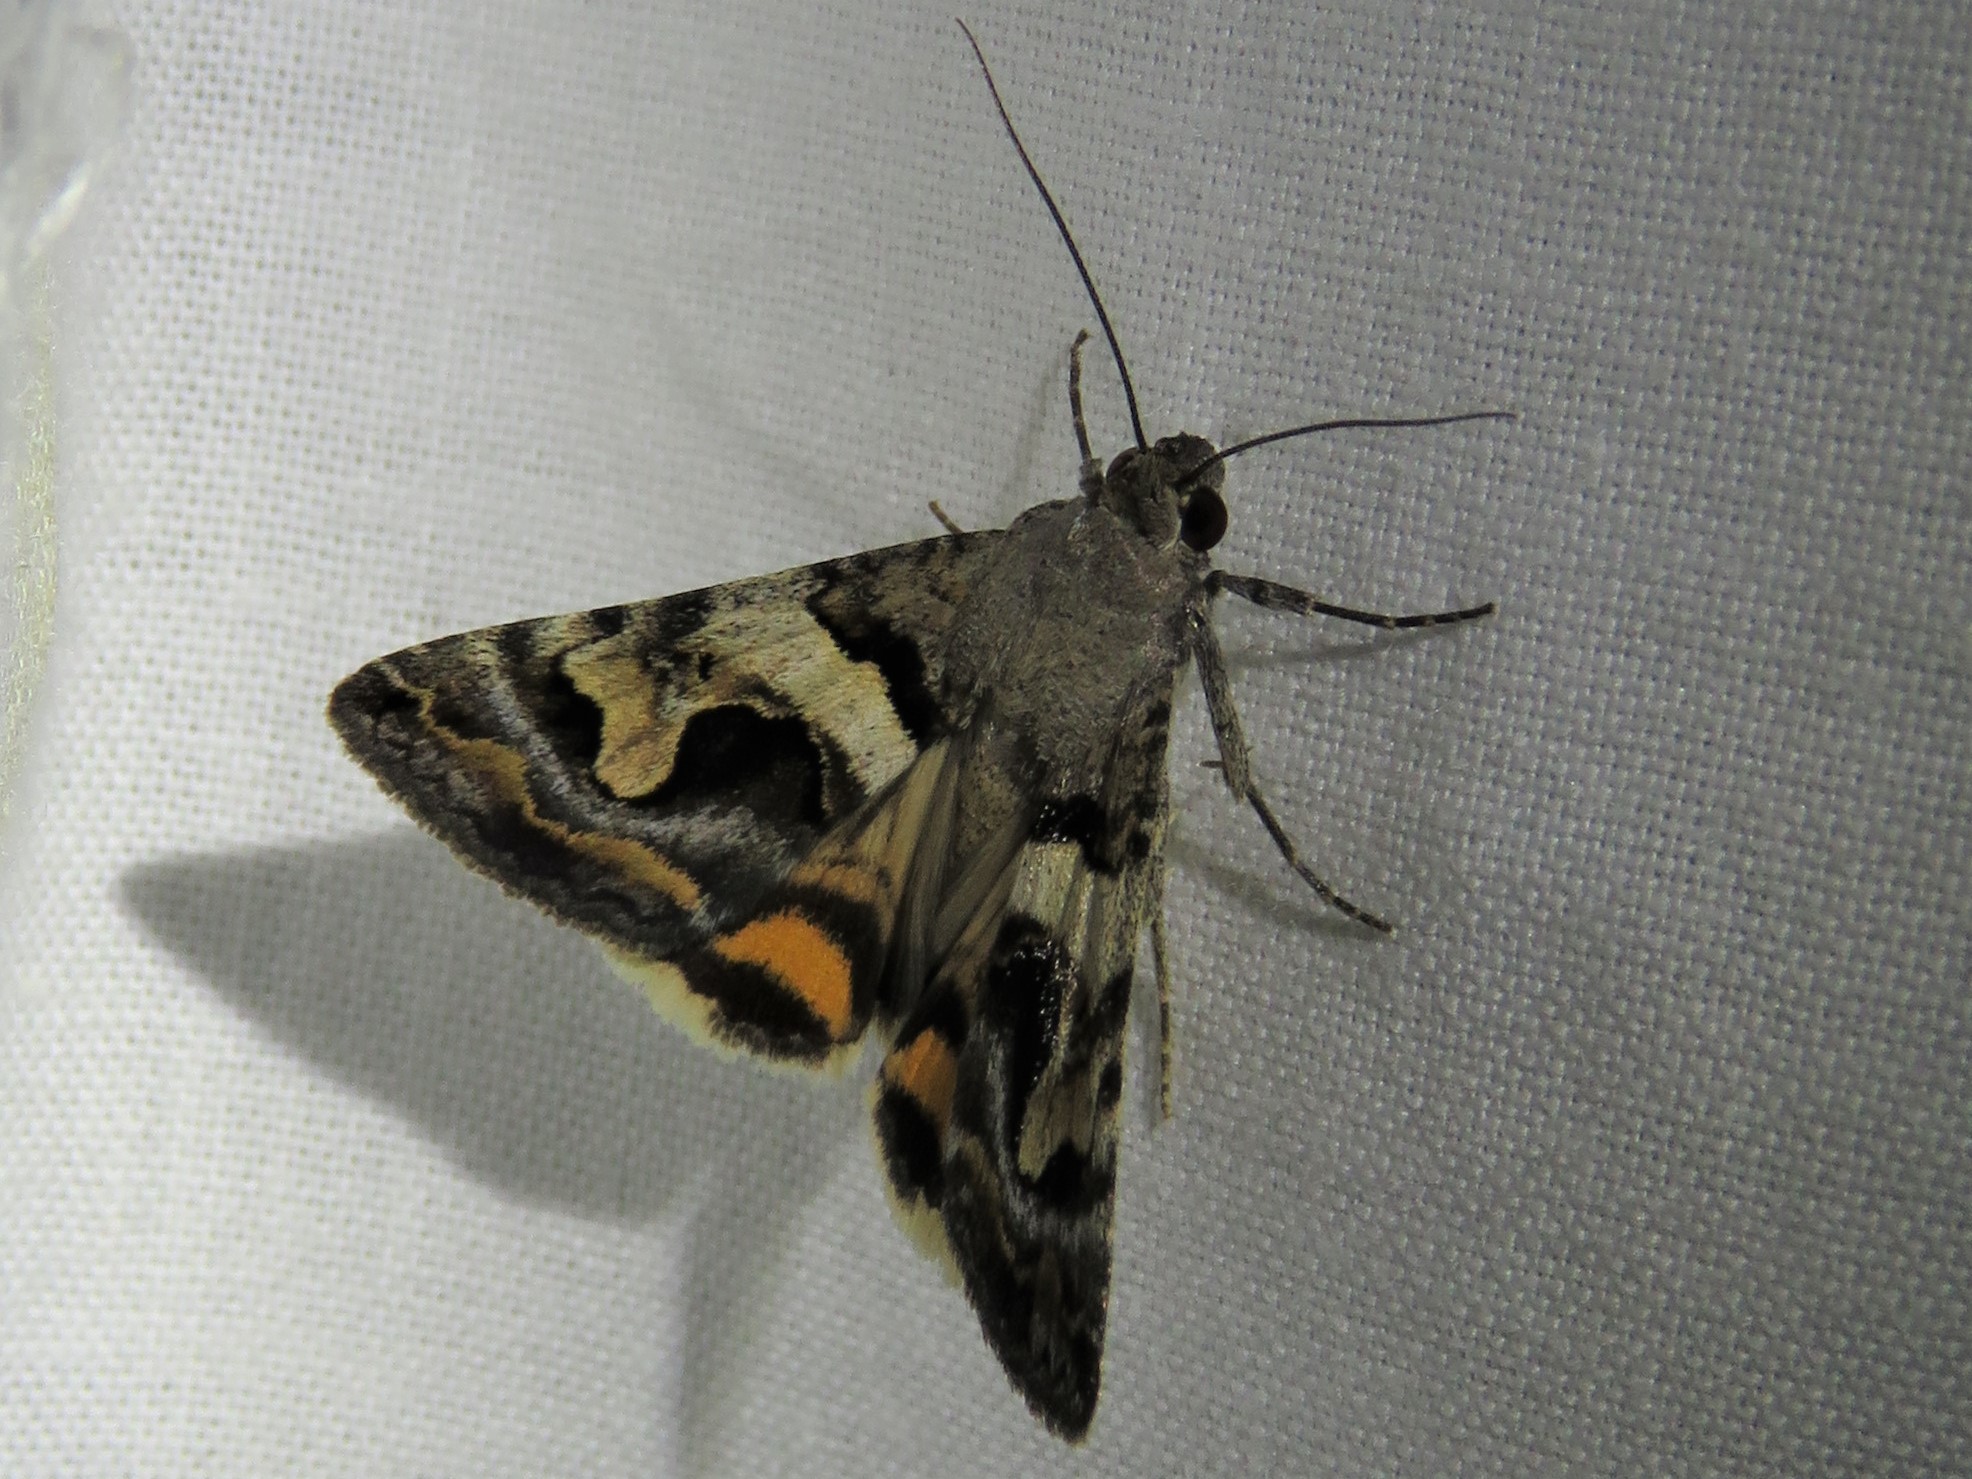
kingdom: Animalia
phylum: Arthropoda
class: Insecta
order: Lepidoptera
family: Erebidae
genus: Bulia
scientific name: Bulia deducta
